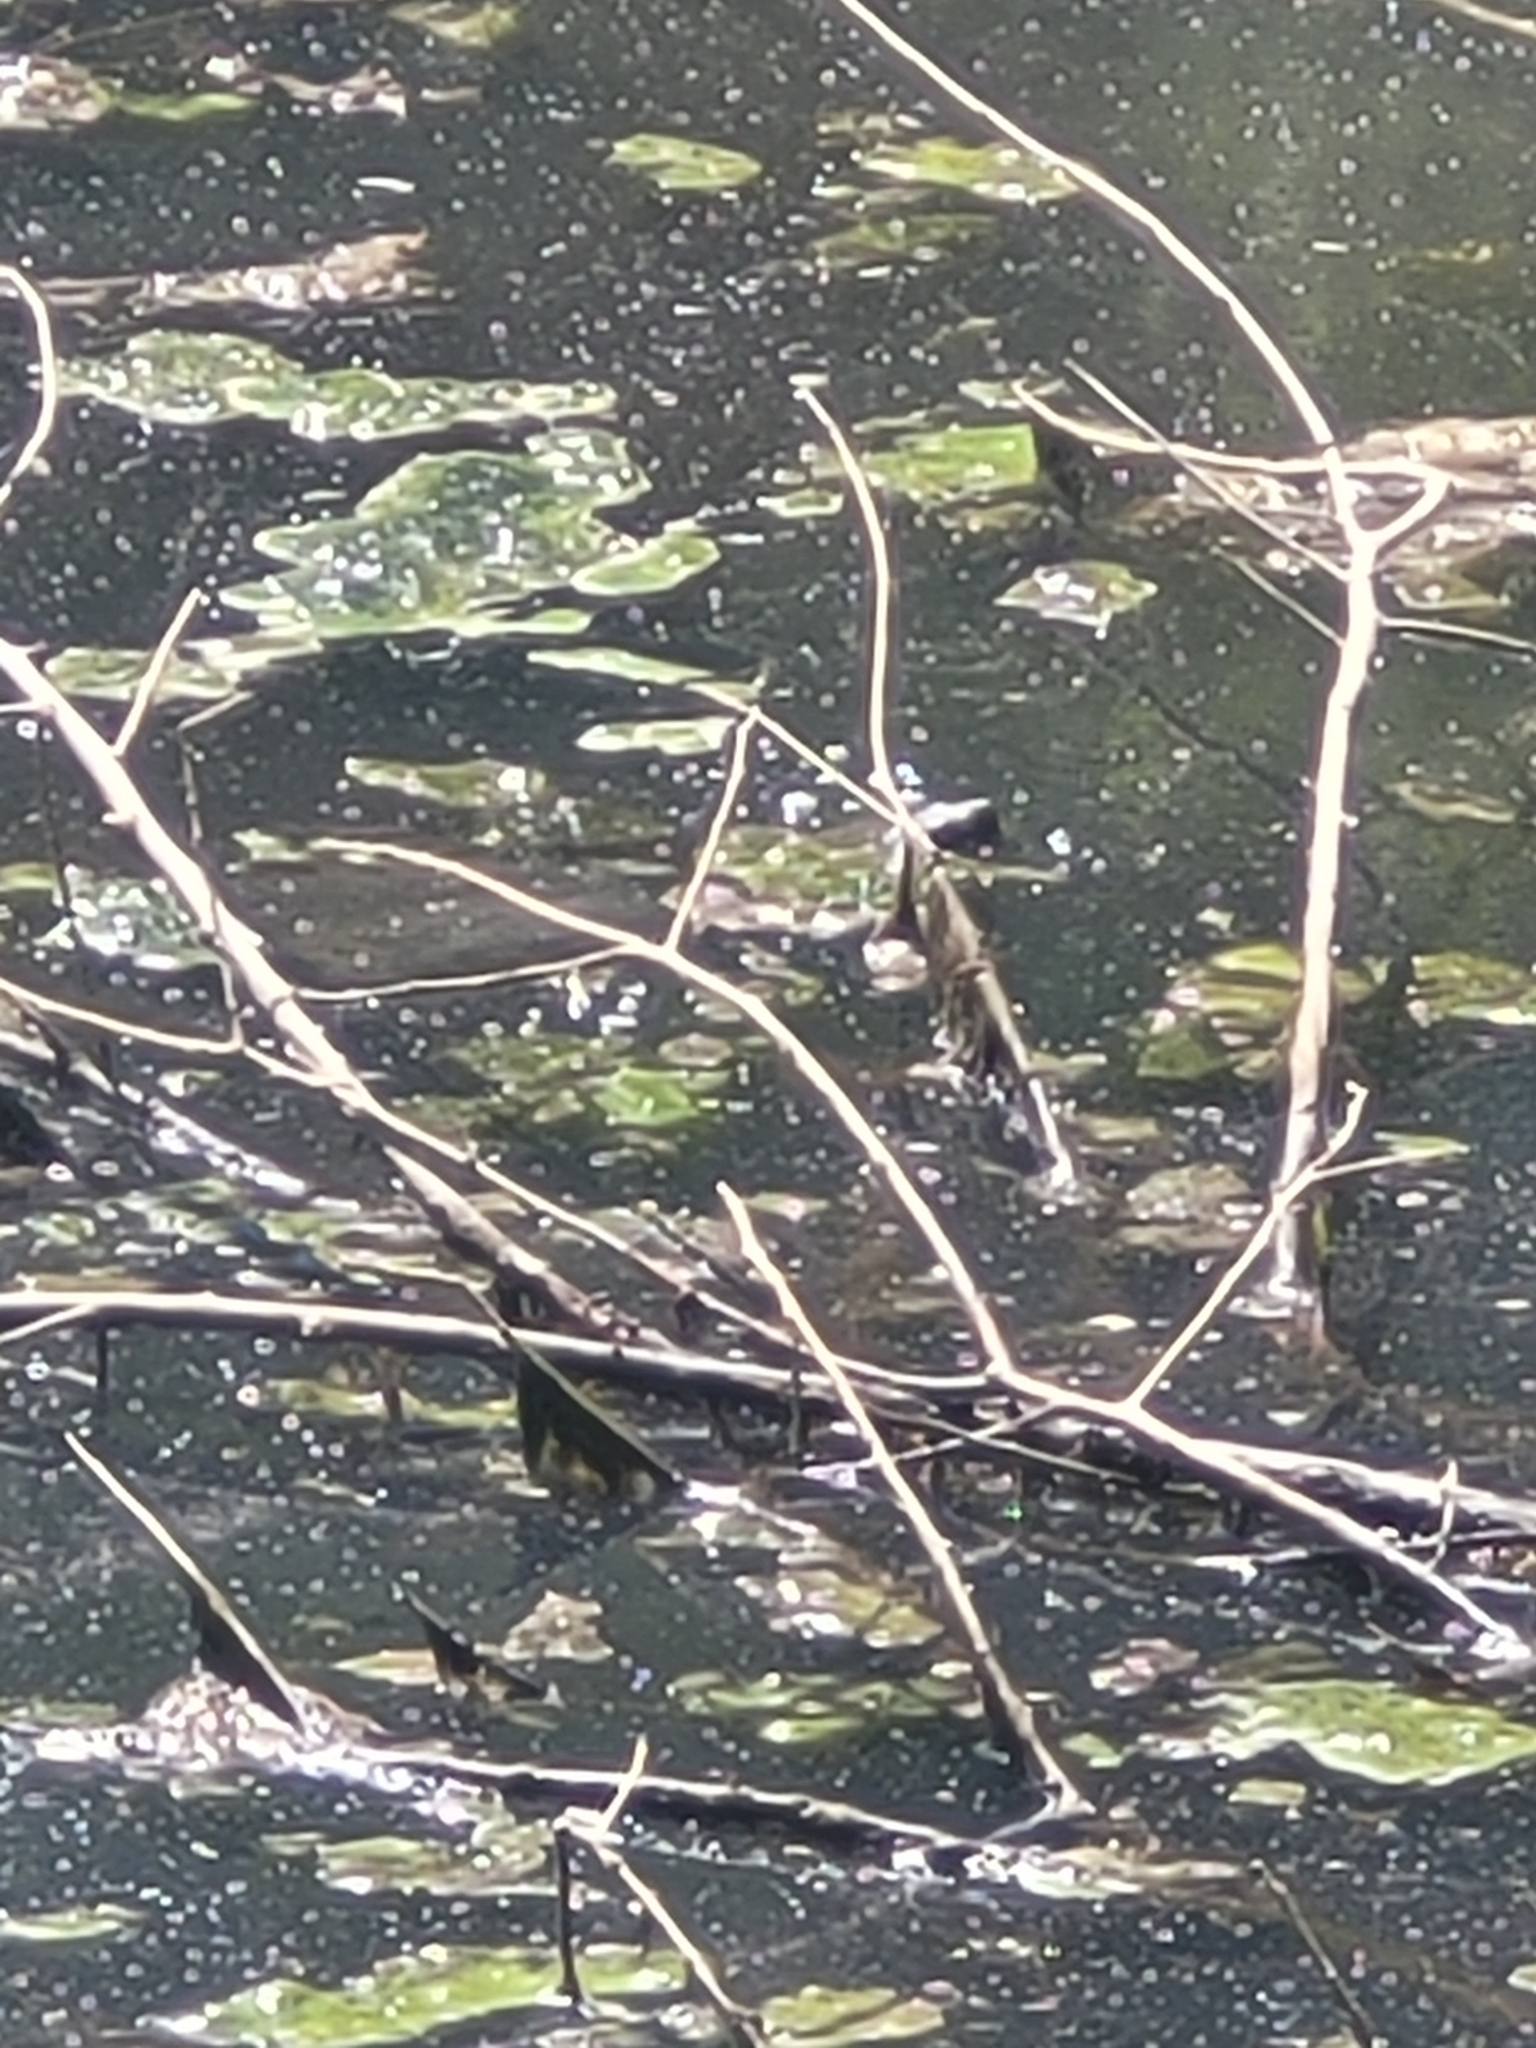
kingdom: Animalia
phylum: Chordata
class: Testudines
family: Chelydridae
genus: Chelydra
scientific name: Chelydra serpentina
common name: Common snapping turtle
